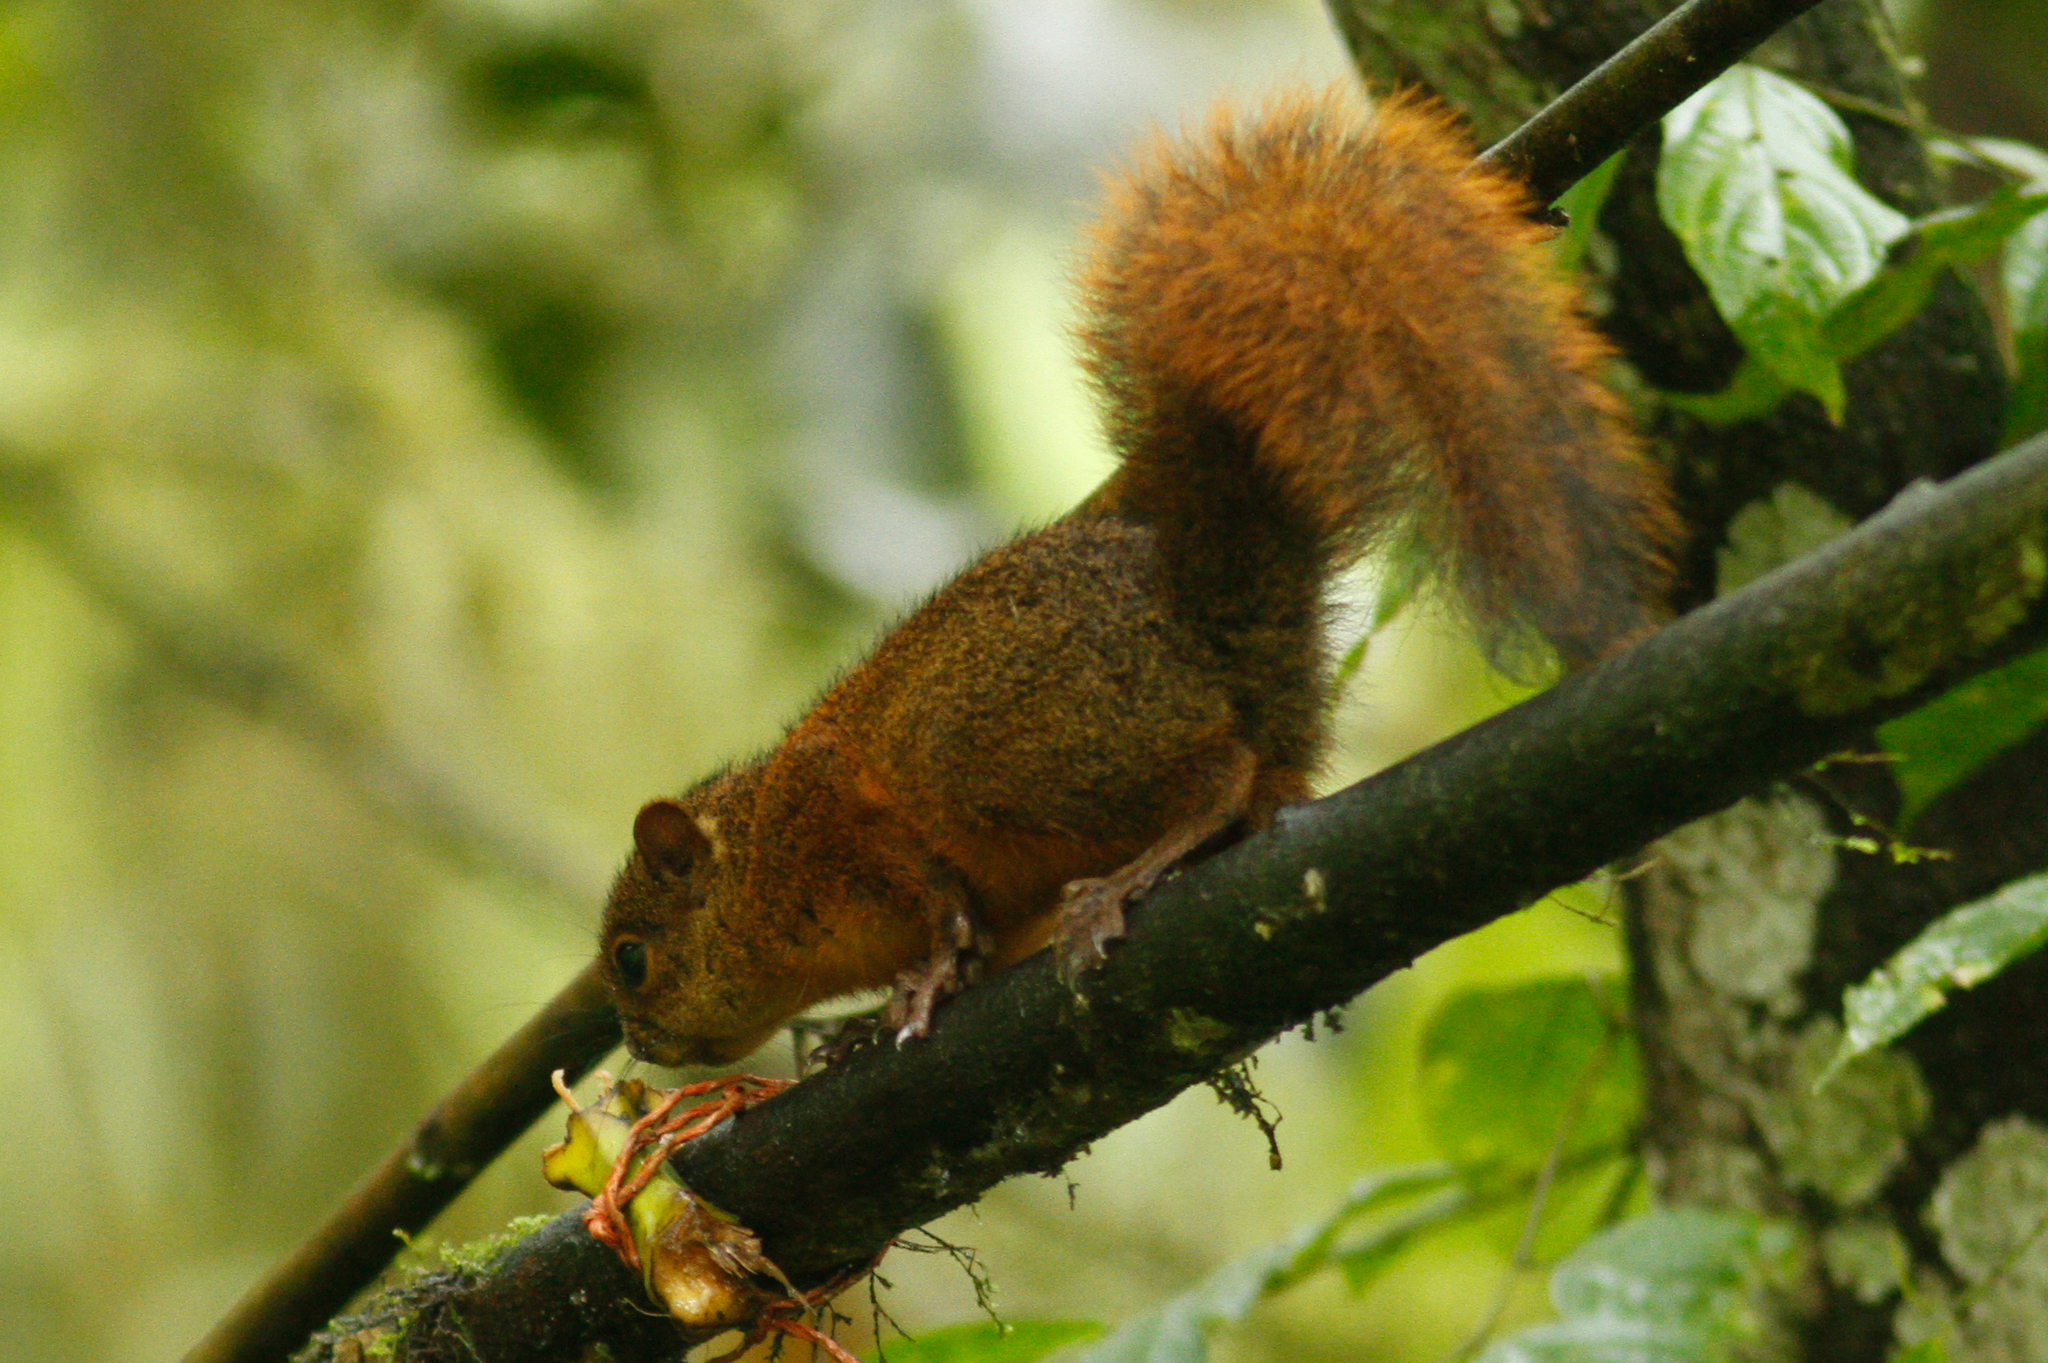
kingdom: Animalia
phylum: Chordata
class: Mammalia
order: Rodentia
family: Sciuridae
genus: Sciurus
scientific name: Sciurus granatensis
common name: Red-tailed squirrel
